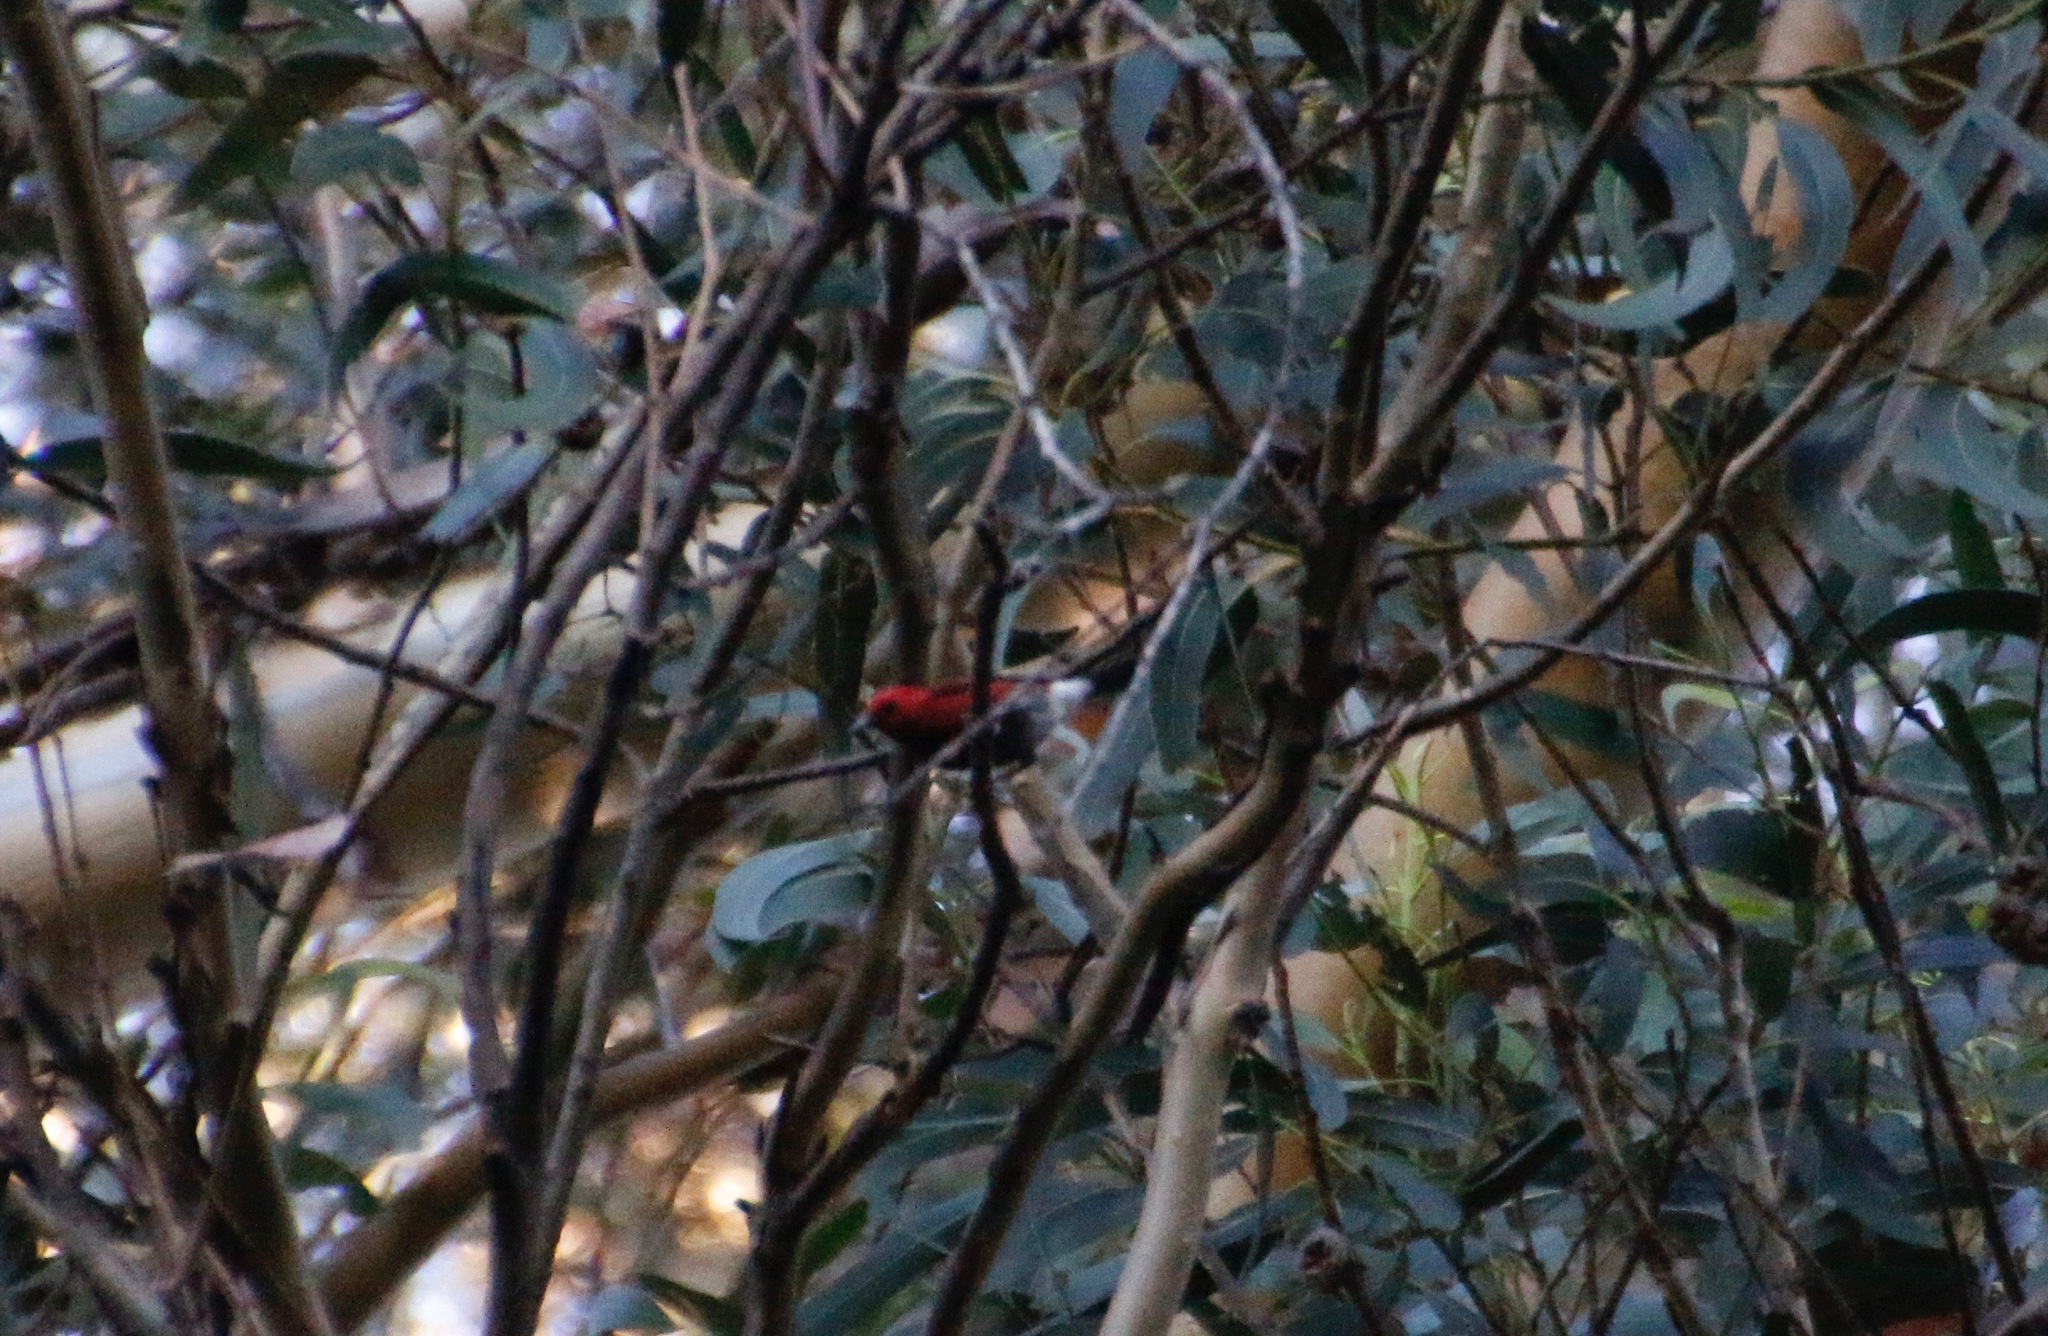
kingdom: Animalia
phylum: Chordata
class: Aves
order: Passeriformes
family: Fringillidae
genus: Himatione
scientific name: Himatione sanguinea
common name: Apapane
